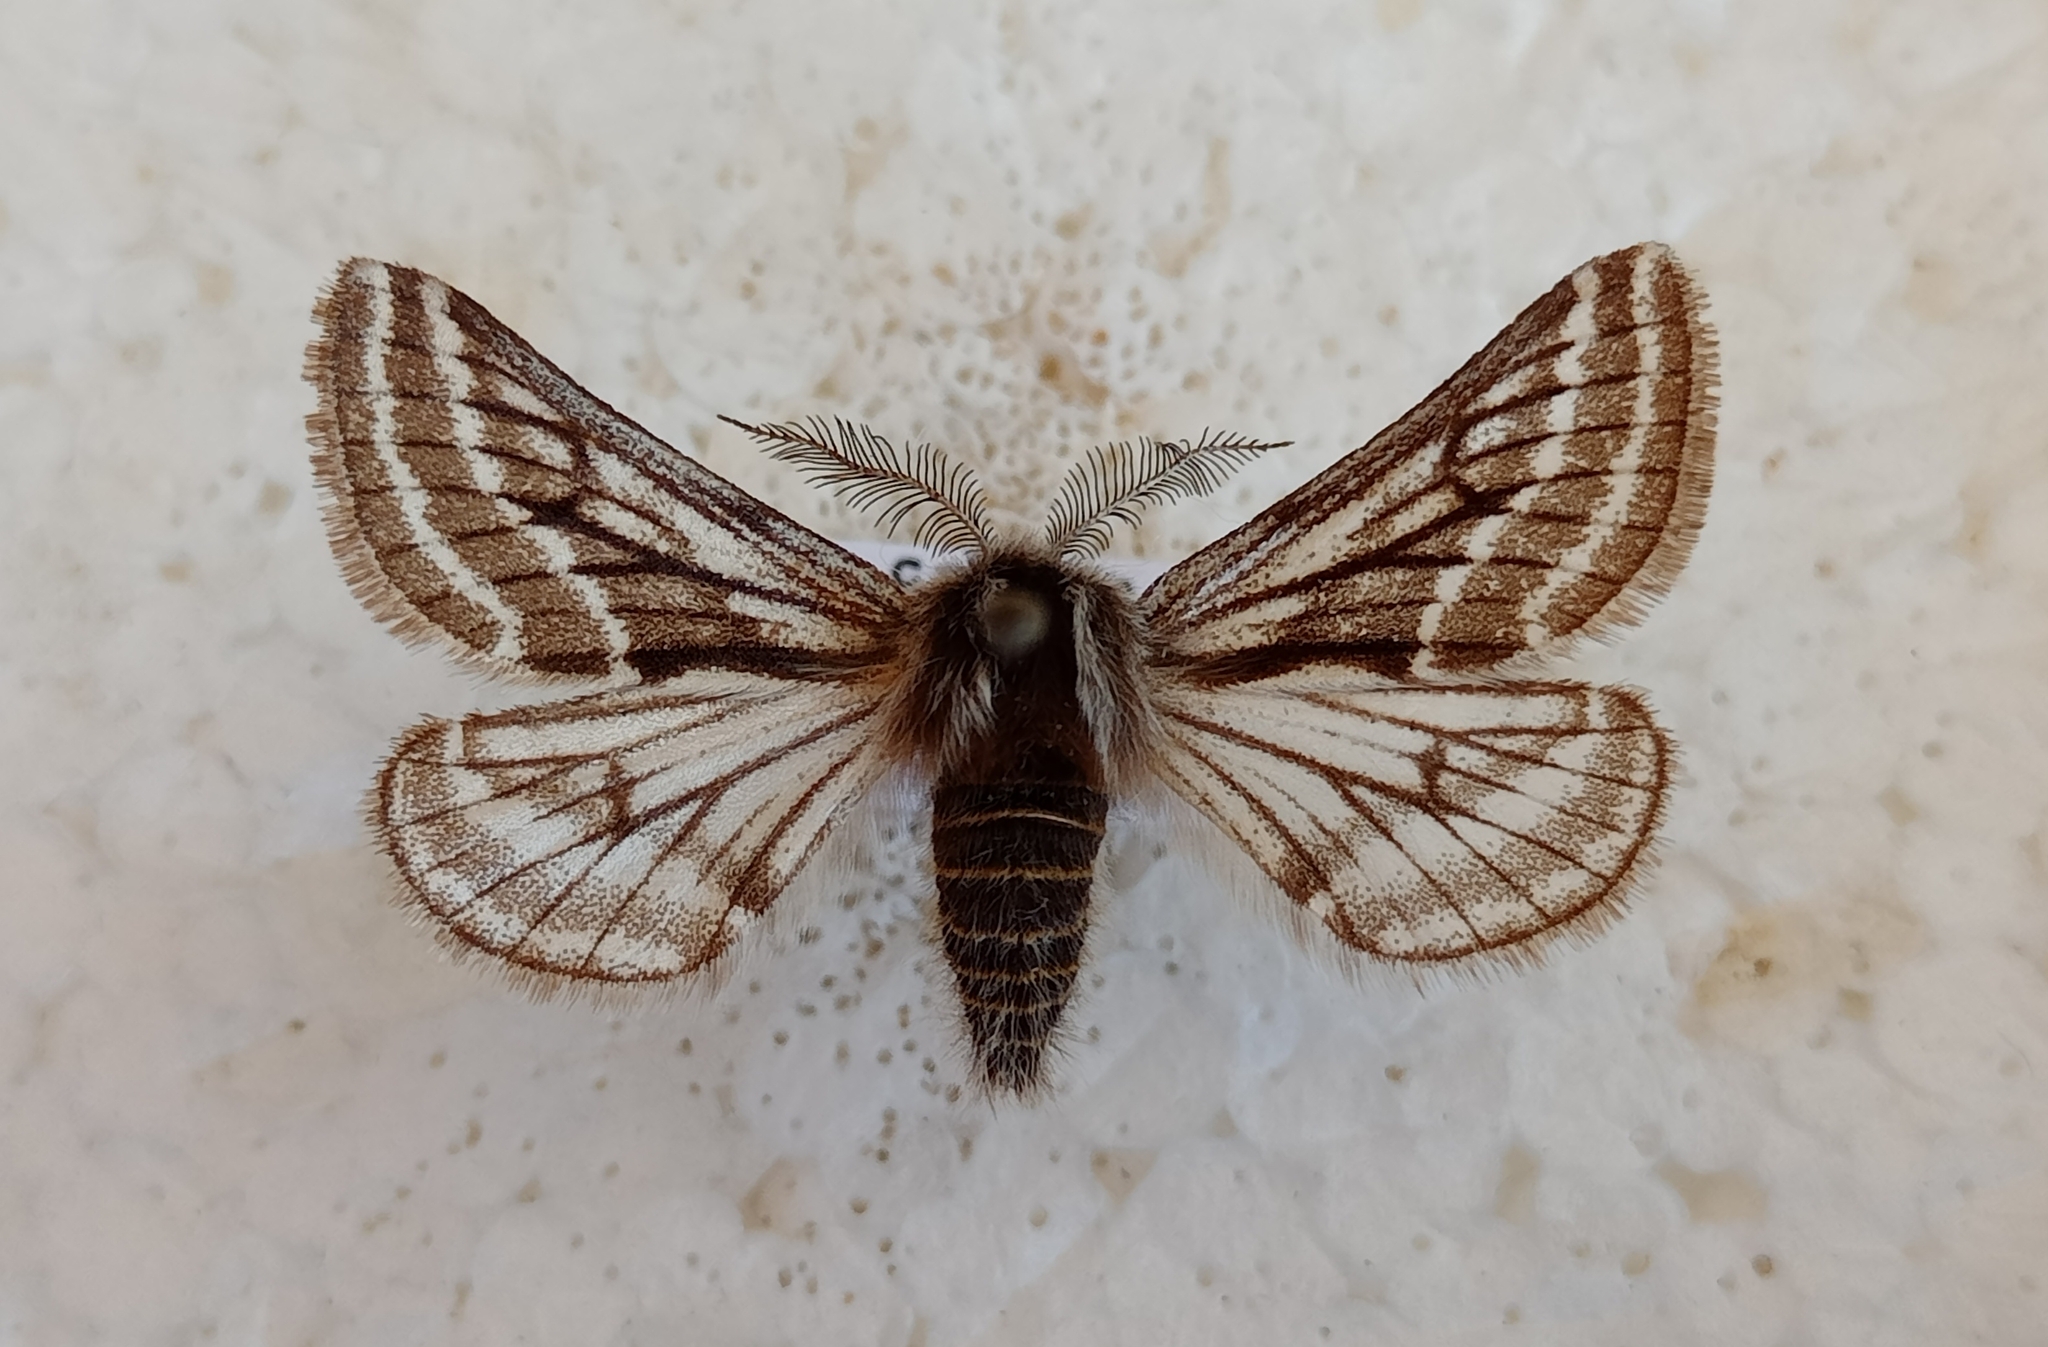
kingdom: Animalia
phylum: Arthropoda
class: Insecta
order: Lepidoptera
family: Geometridae
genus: Lycia
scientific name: Lycia zonaria
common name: Belted beauty
